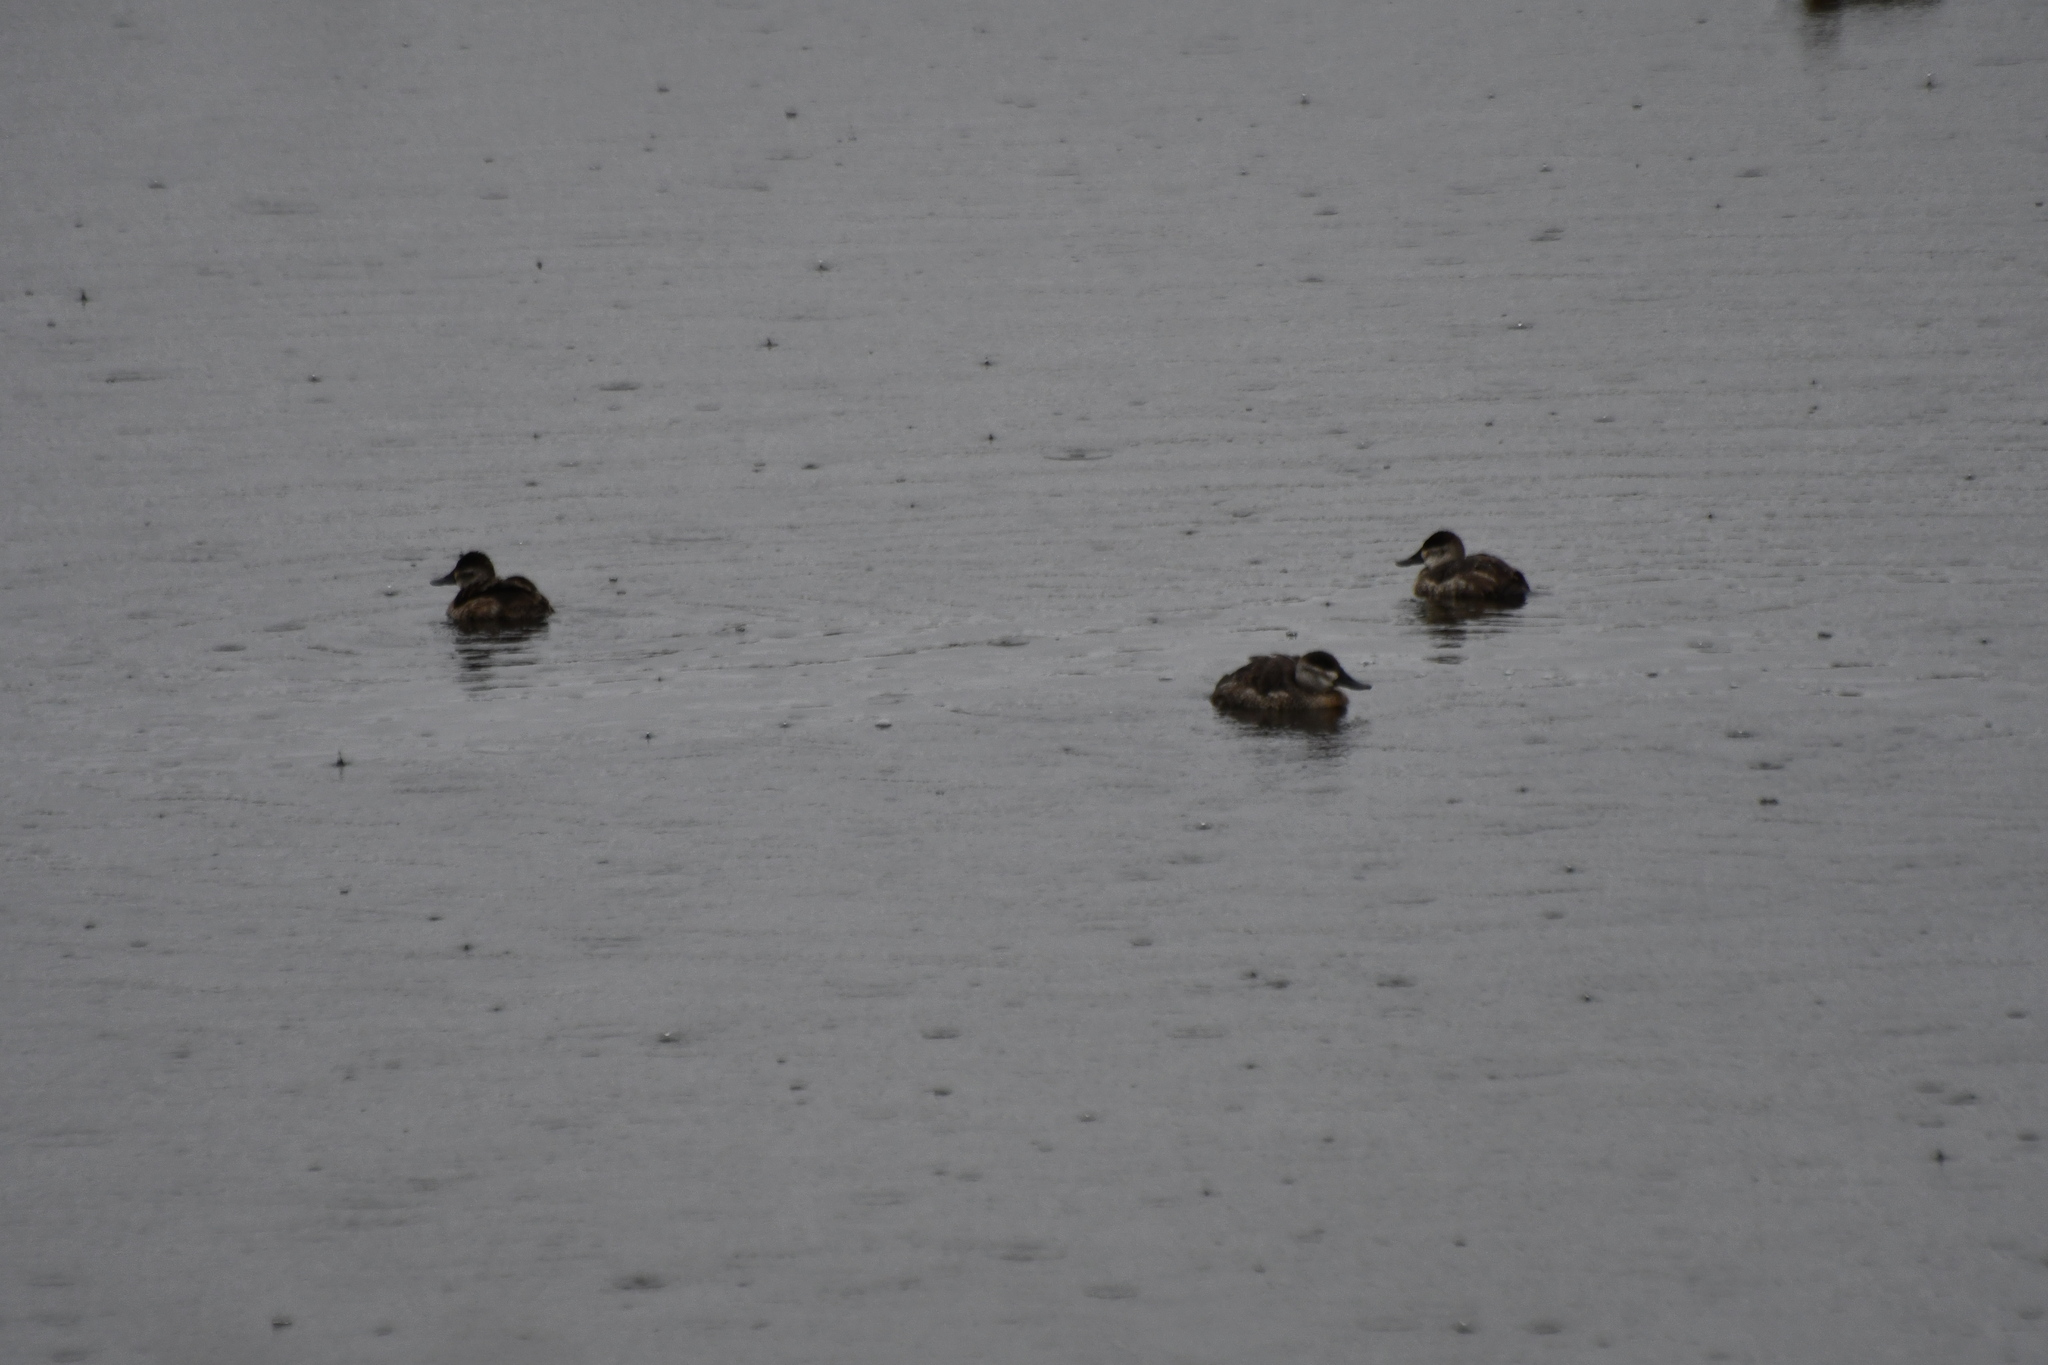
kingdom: Animalia
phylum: Chordata
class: Aves
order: Anseriformes
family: Anatidae
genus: Oxyura
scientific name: Oxyura jamaicensis
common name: Ruddy duck
